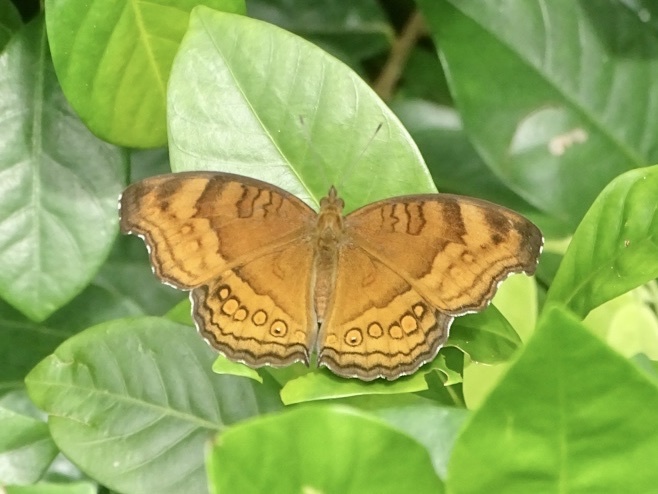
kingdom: Animalia
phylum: Arthropoda
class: Insecta
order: Lepidoptera
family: Nymphalidae
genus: Junonia
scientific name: Junonia hedonia
